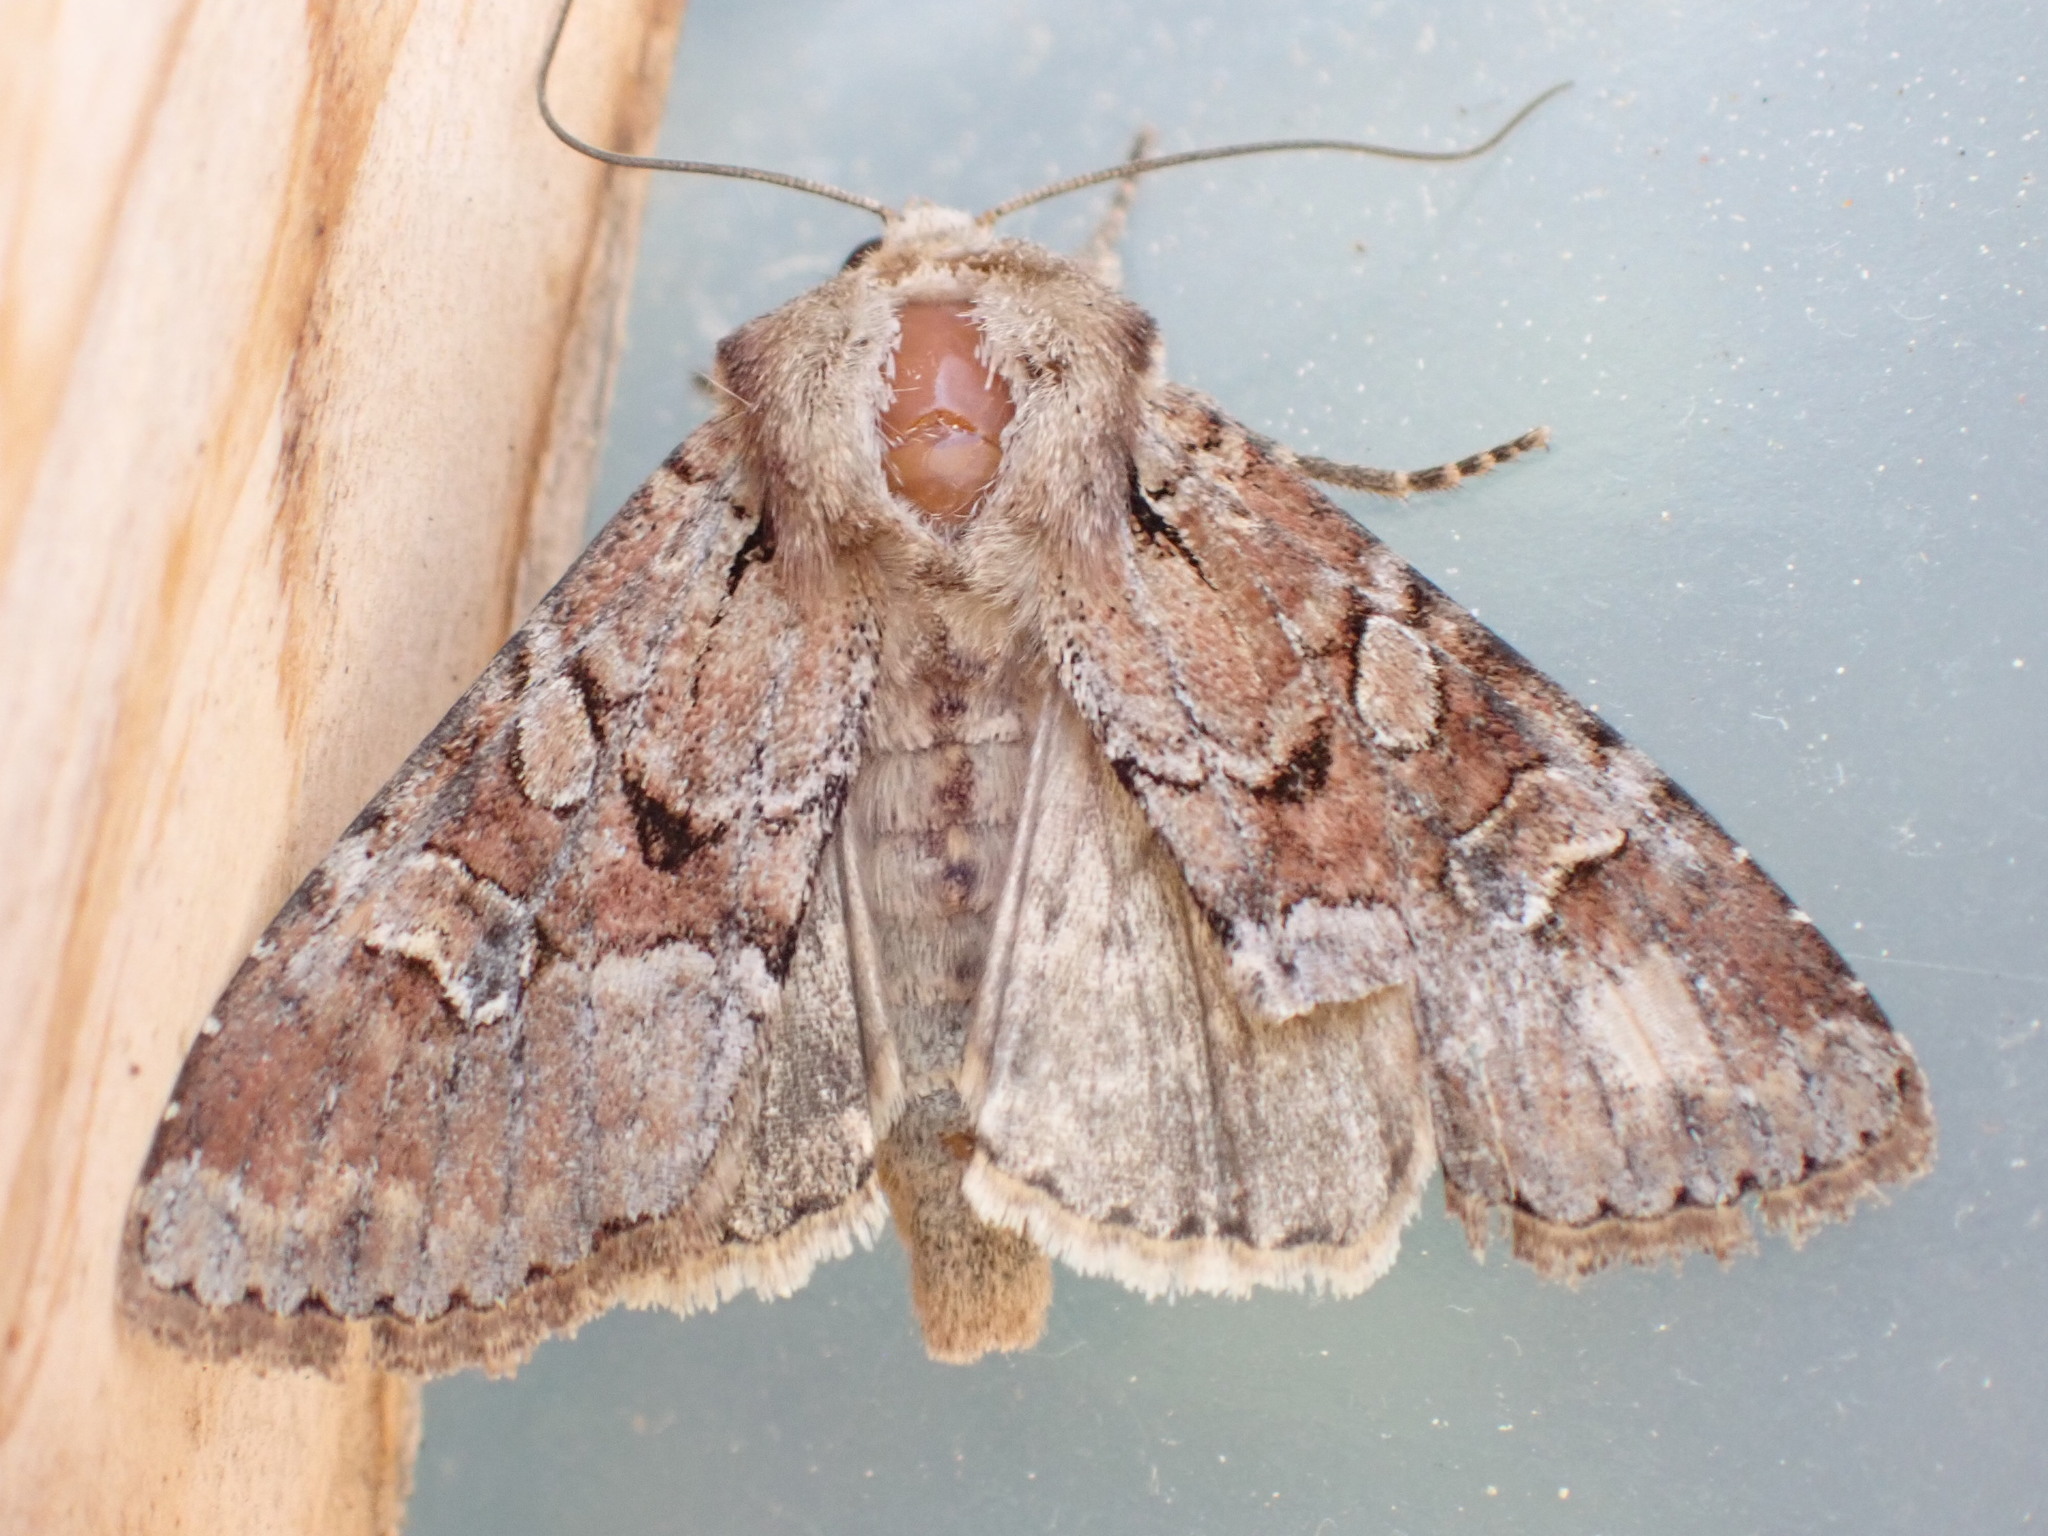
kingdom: Animalia
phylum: Arthropoda
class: Insecta
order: Lepidoptera
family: Noctuidae
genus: Apamea
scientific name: Apamea sordens
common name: Rustic shoulder-knot
